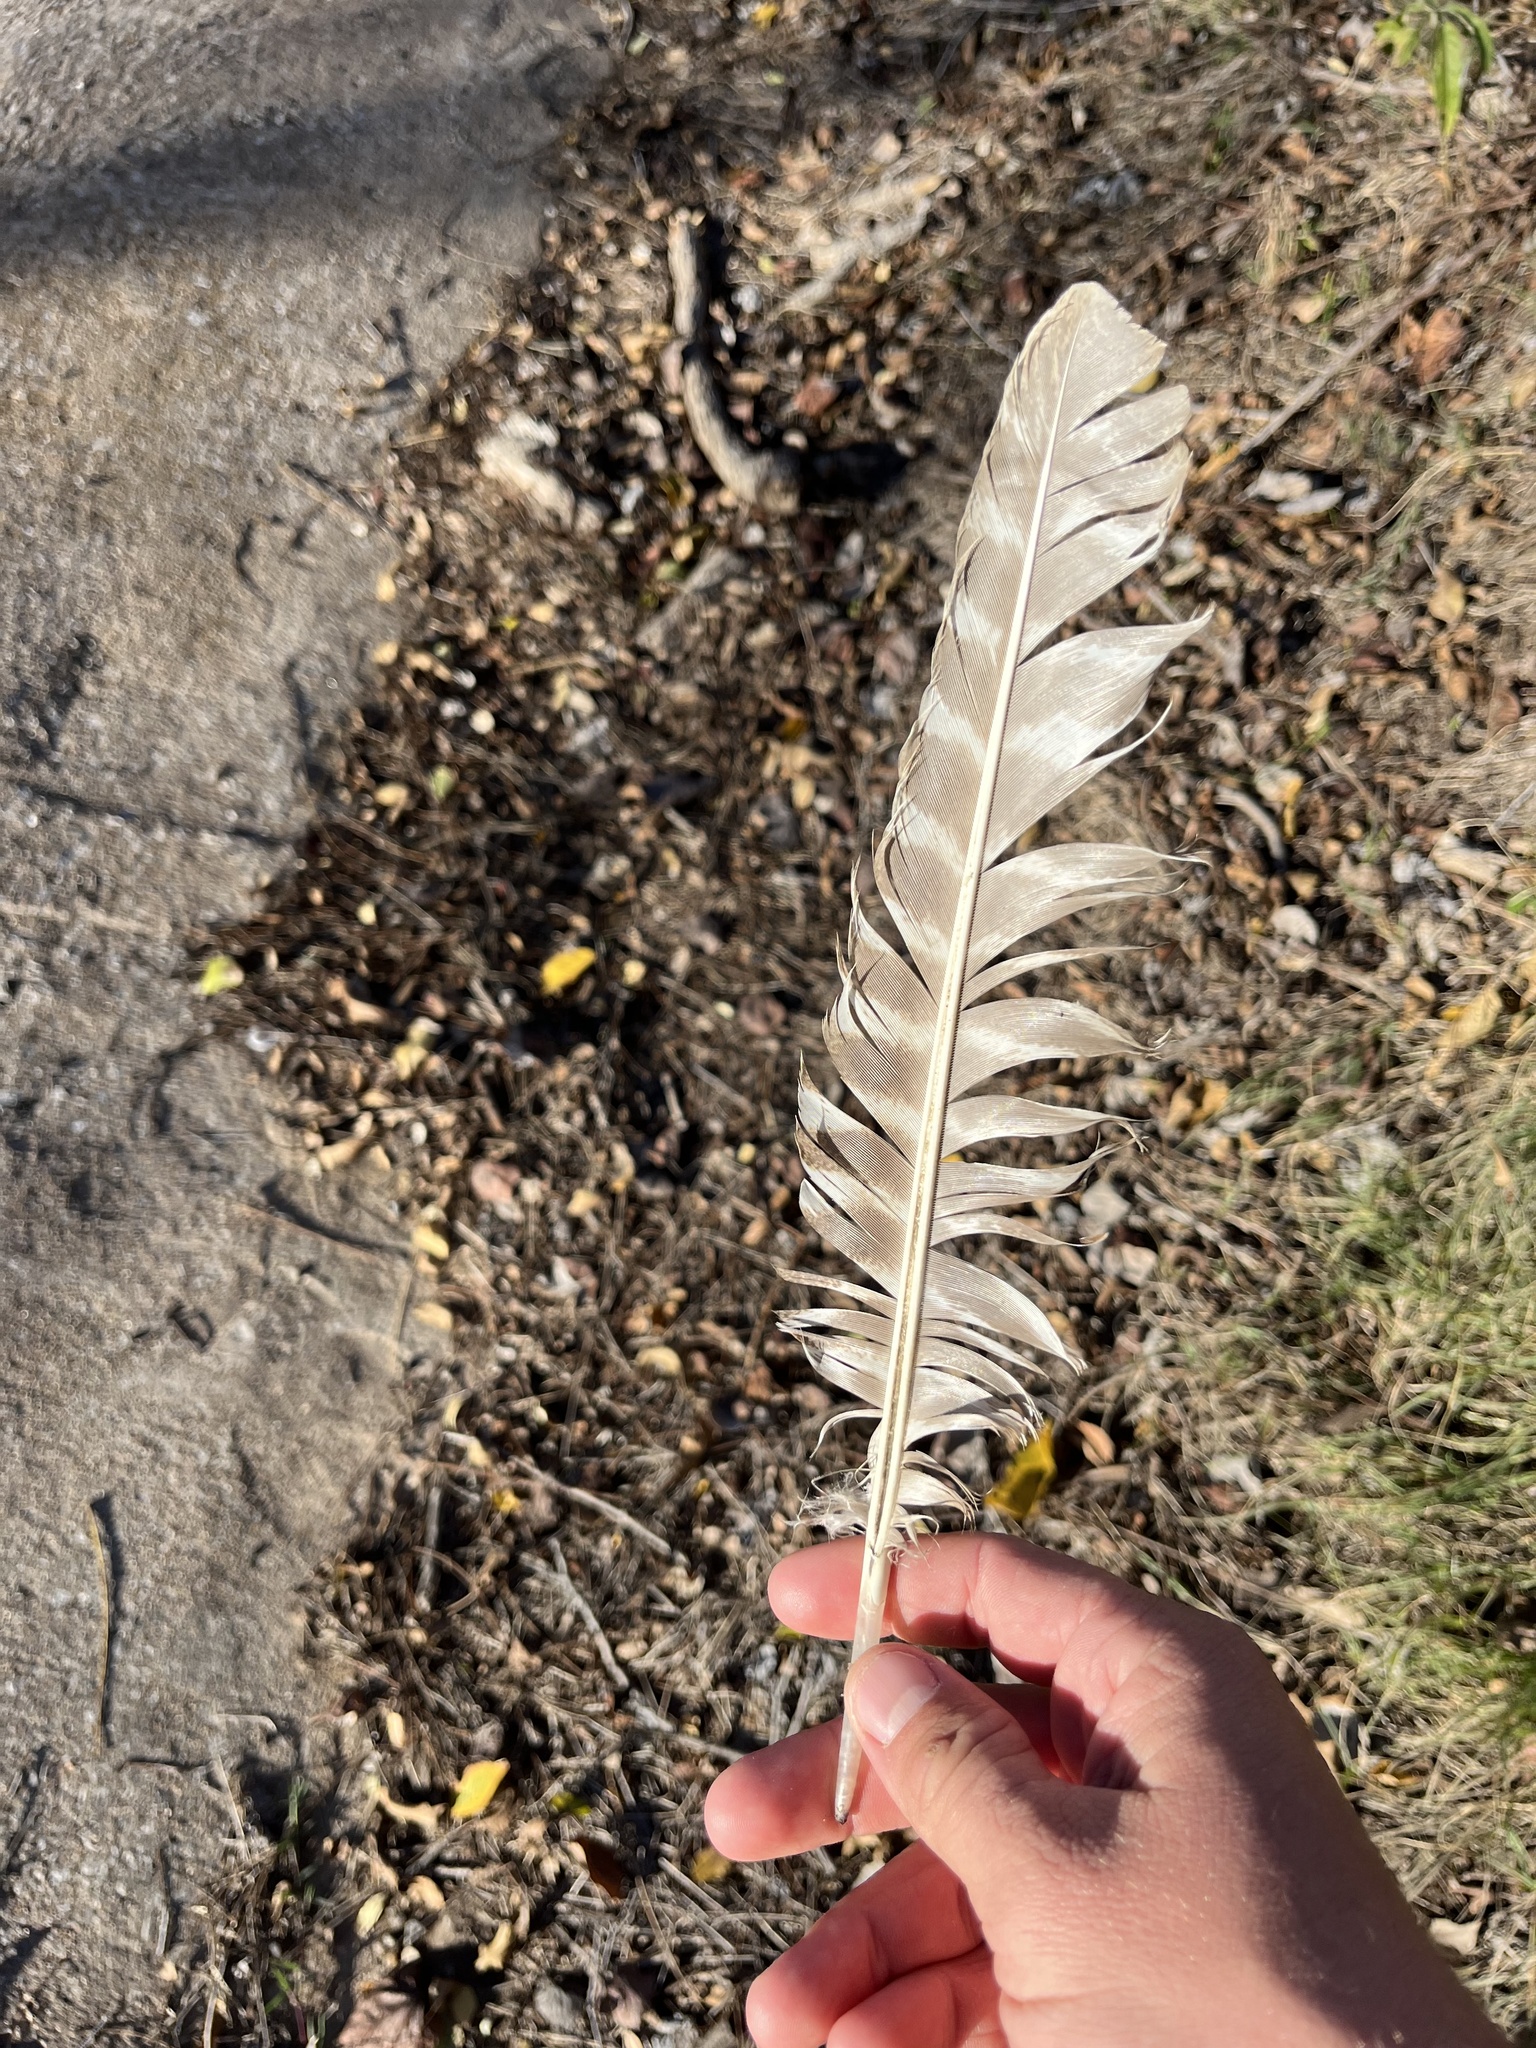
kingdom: Animalia
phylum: Chordata
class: Aves
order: Galliformes
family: Phasianidae
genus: Meleagris
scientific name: Meleagris gallopavo
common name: Wild turkey
